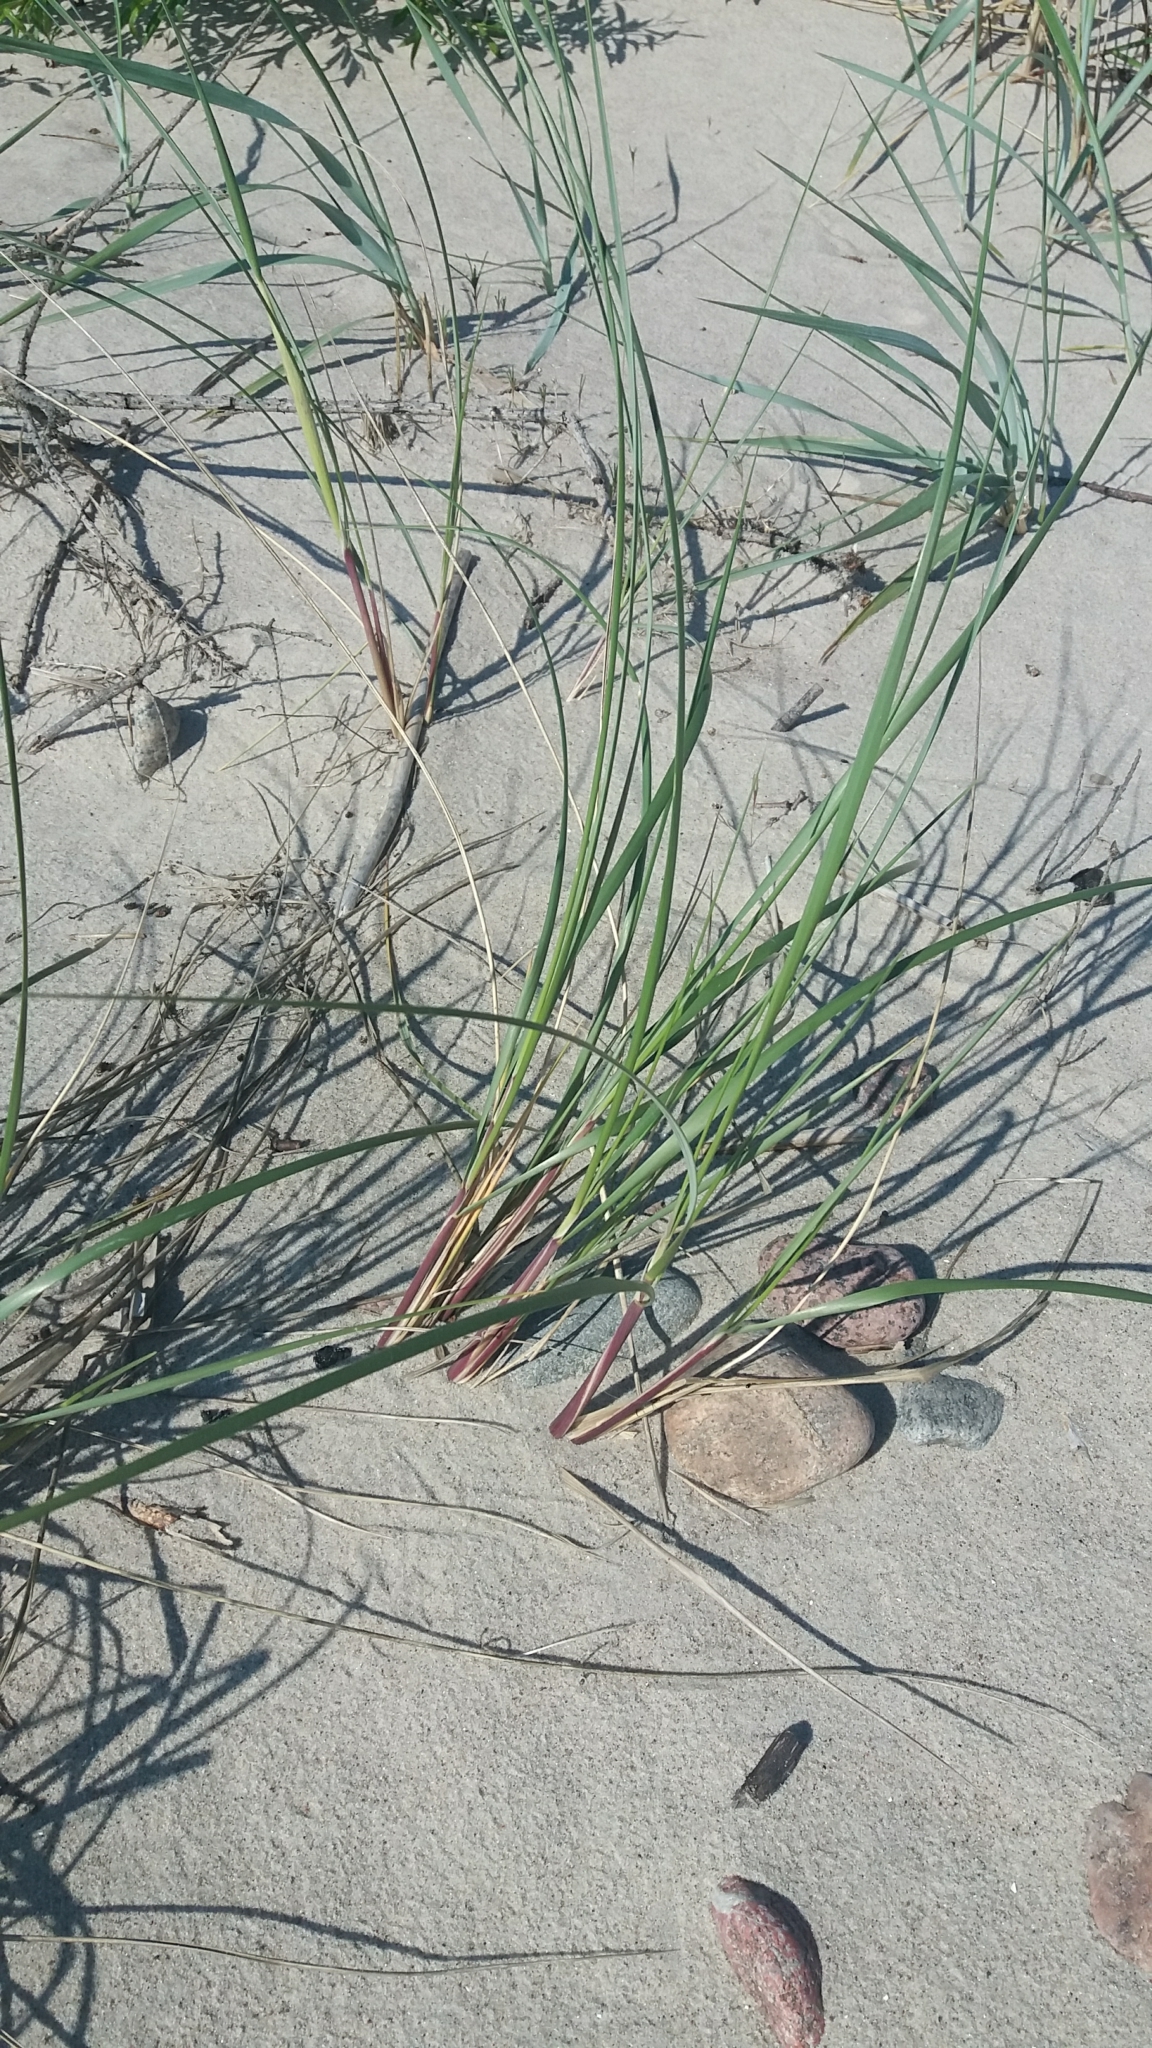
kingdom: Plantae
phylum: Tracheophyta
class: Liliopsida
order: Poales
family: Poaceae
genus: Calamagrostis
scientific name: Calamagrostis arenaria
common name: European beachgrass
